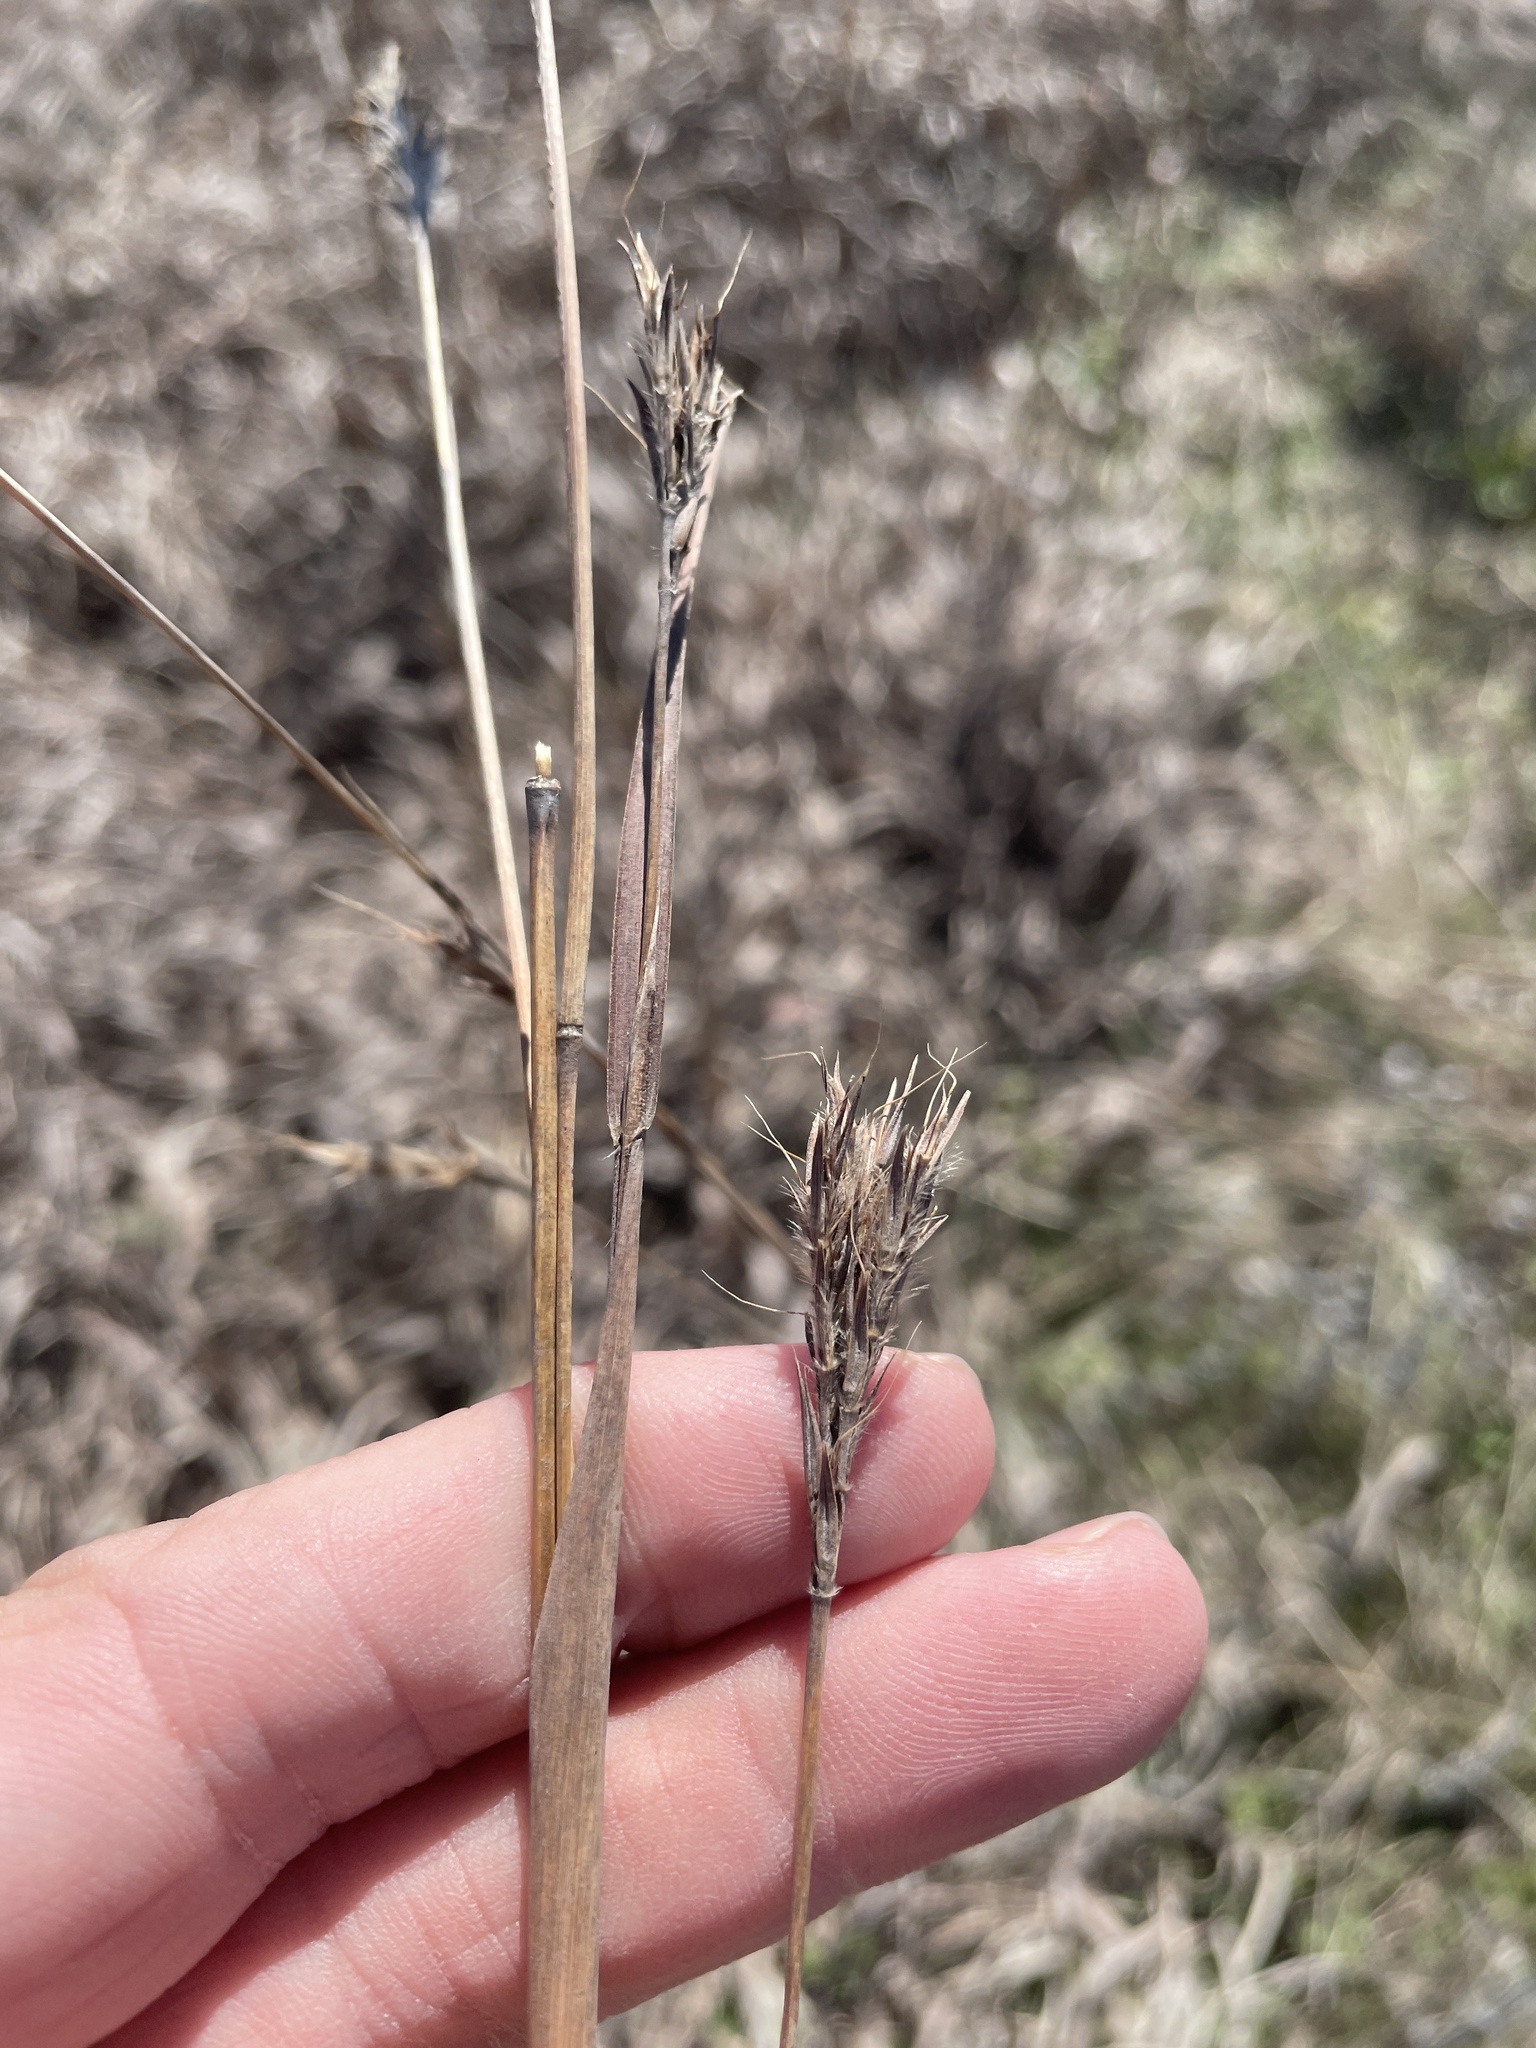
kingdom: Plantae
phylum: Tracheophyta
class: Liliopsida
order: Poales
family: Poaceae
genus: Andropogon
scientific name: Andropogon gerardi
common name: Big bluestem
